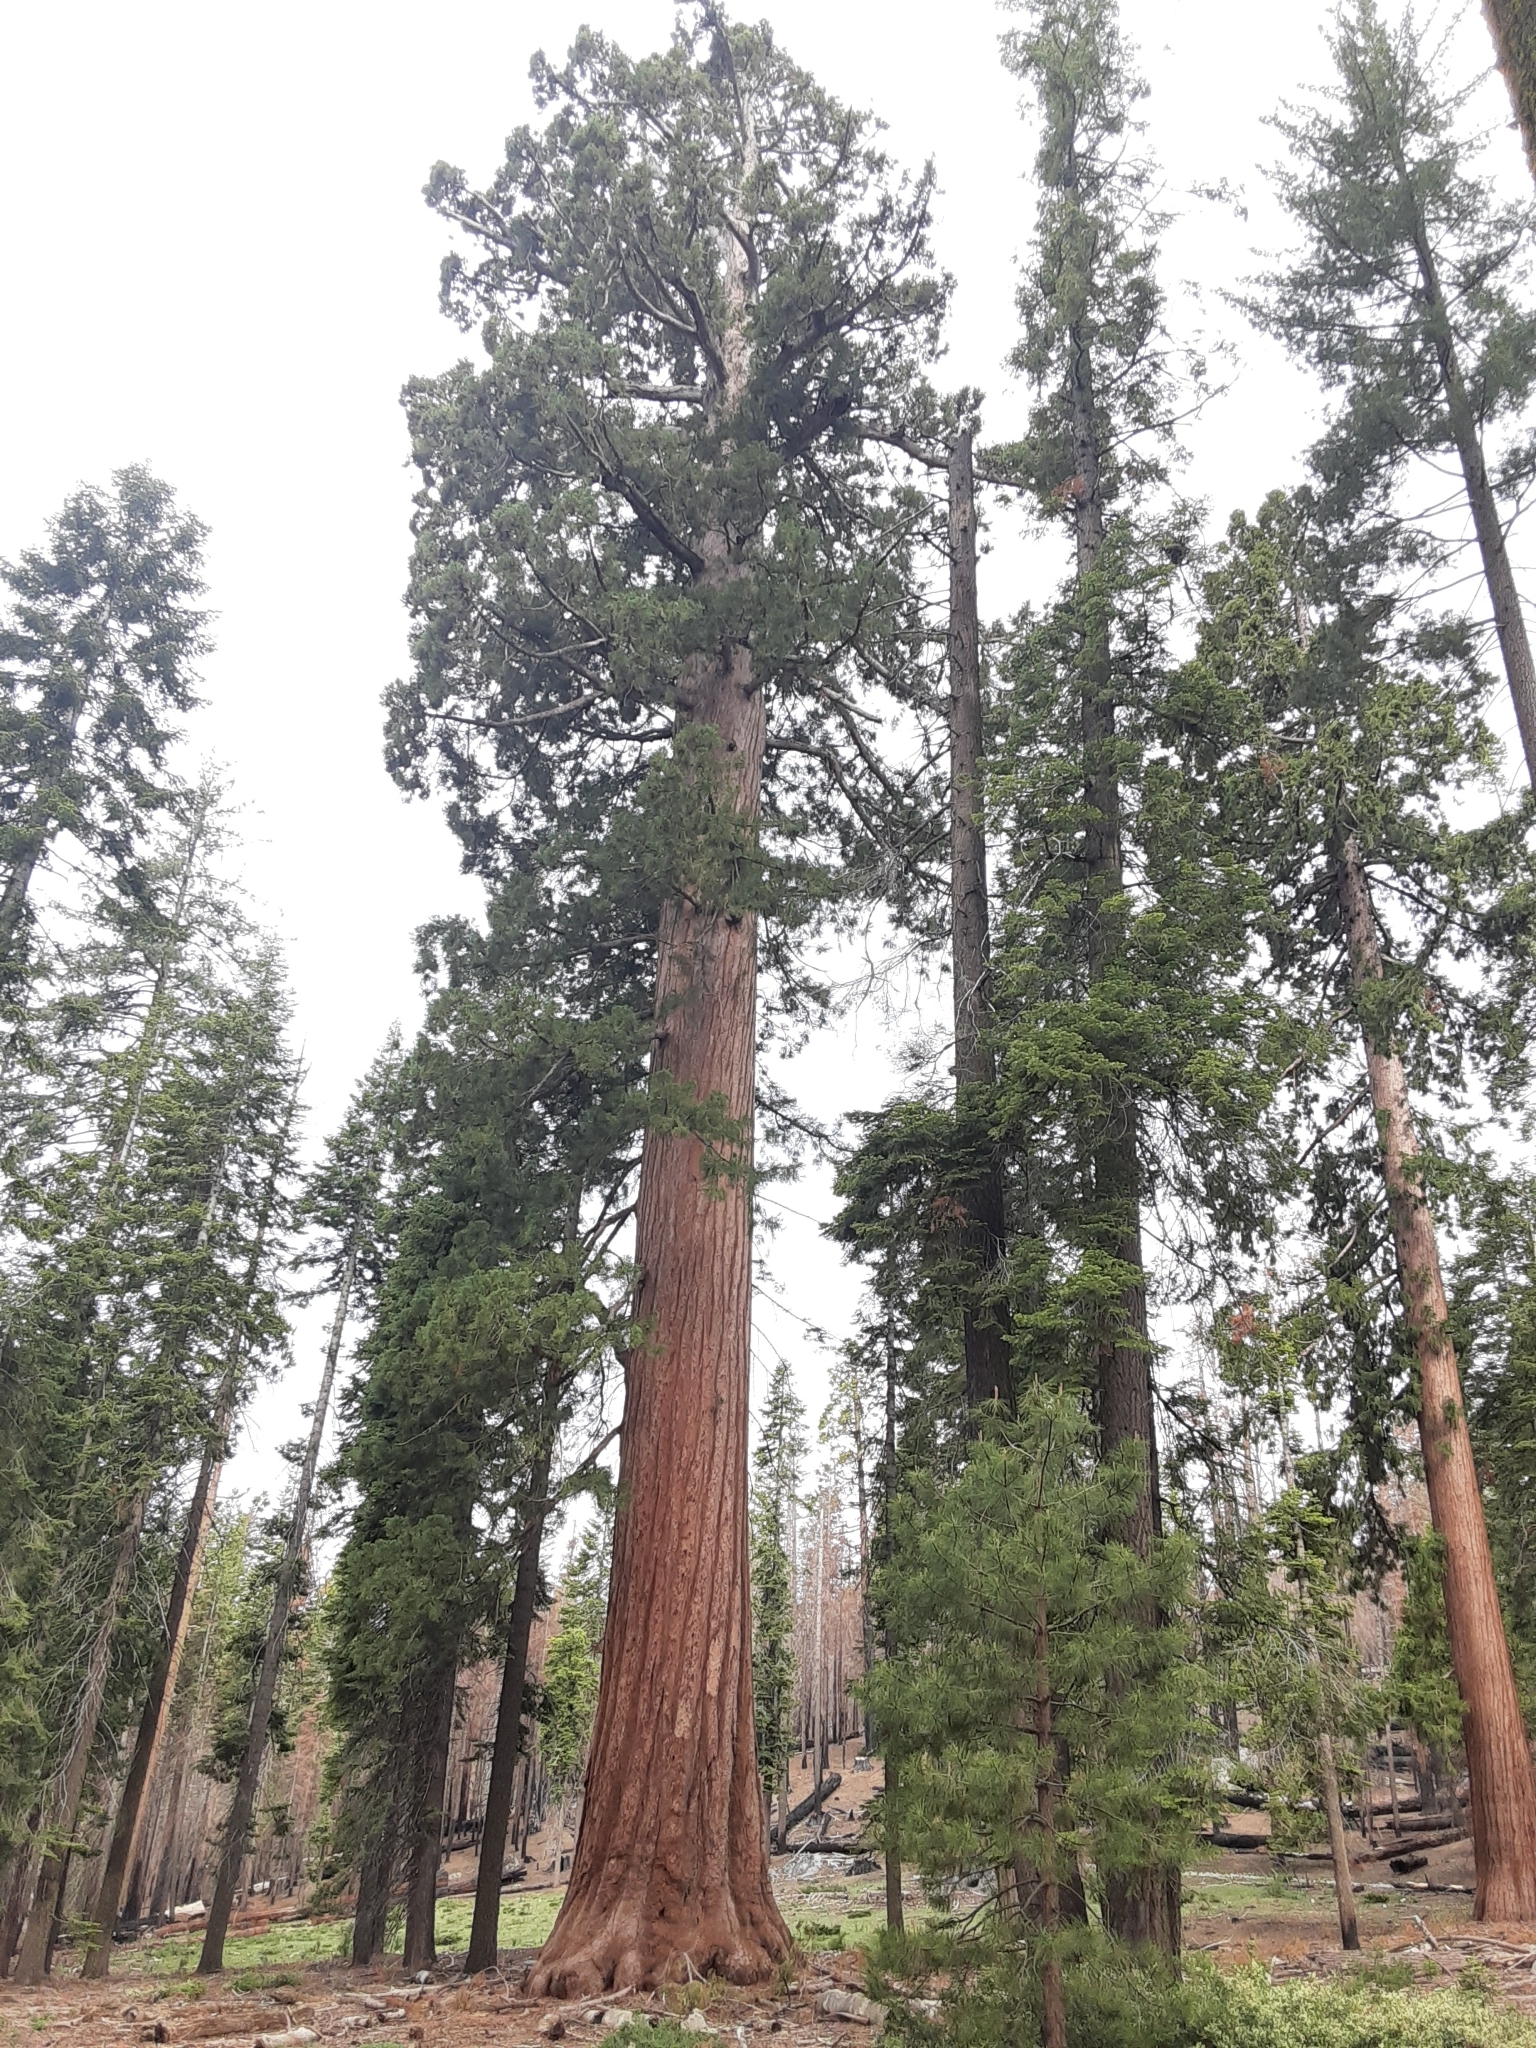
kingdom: Plantae
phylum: Tracheophyta
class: Pinopsida
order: Pinales
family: Cupressaceae
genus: Sequoiadendron
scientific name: Sequoiadendron giganteum
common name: Wellingtonia
